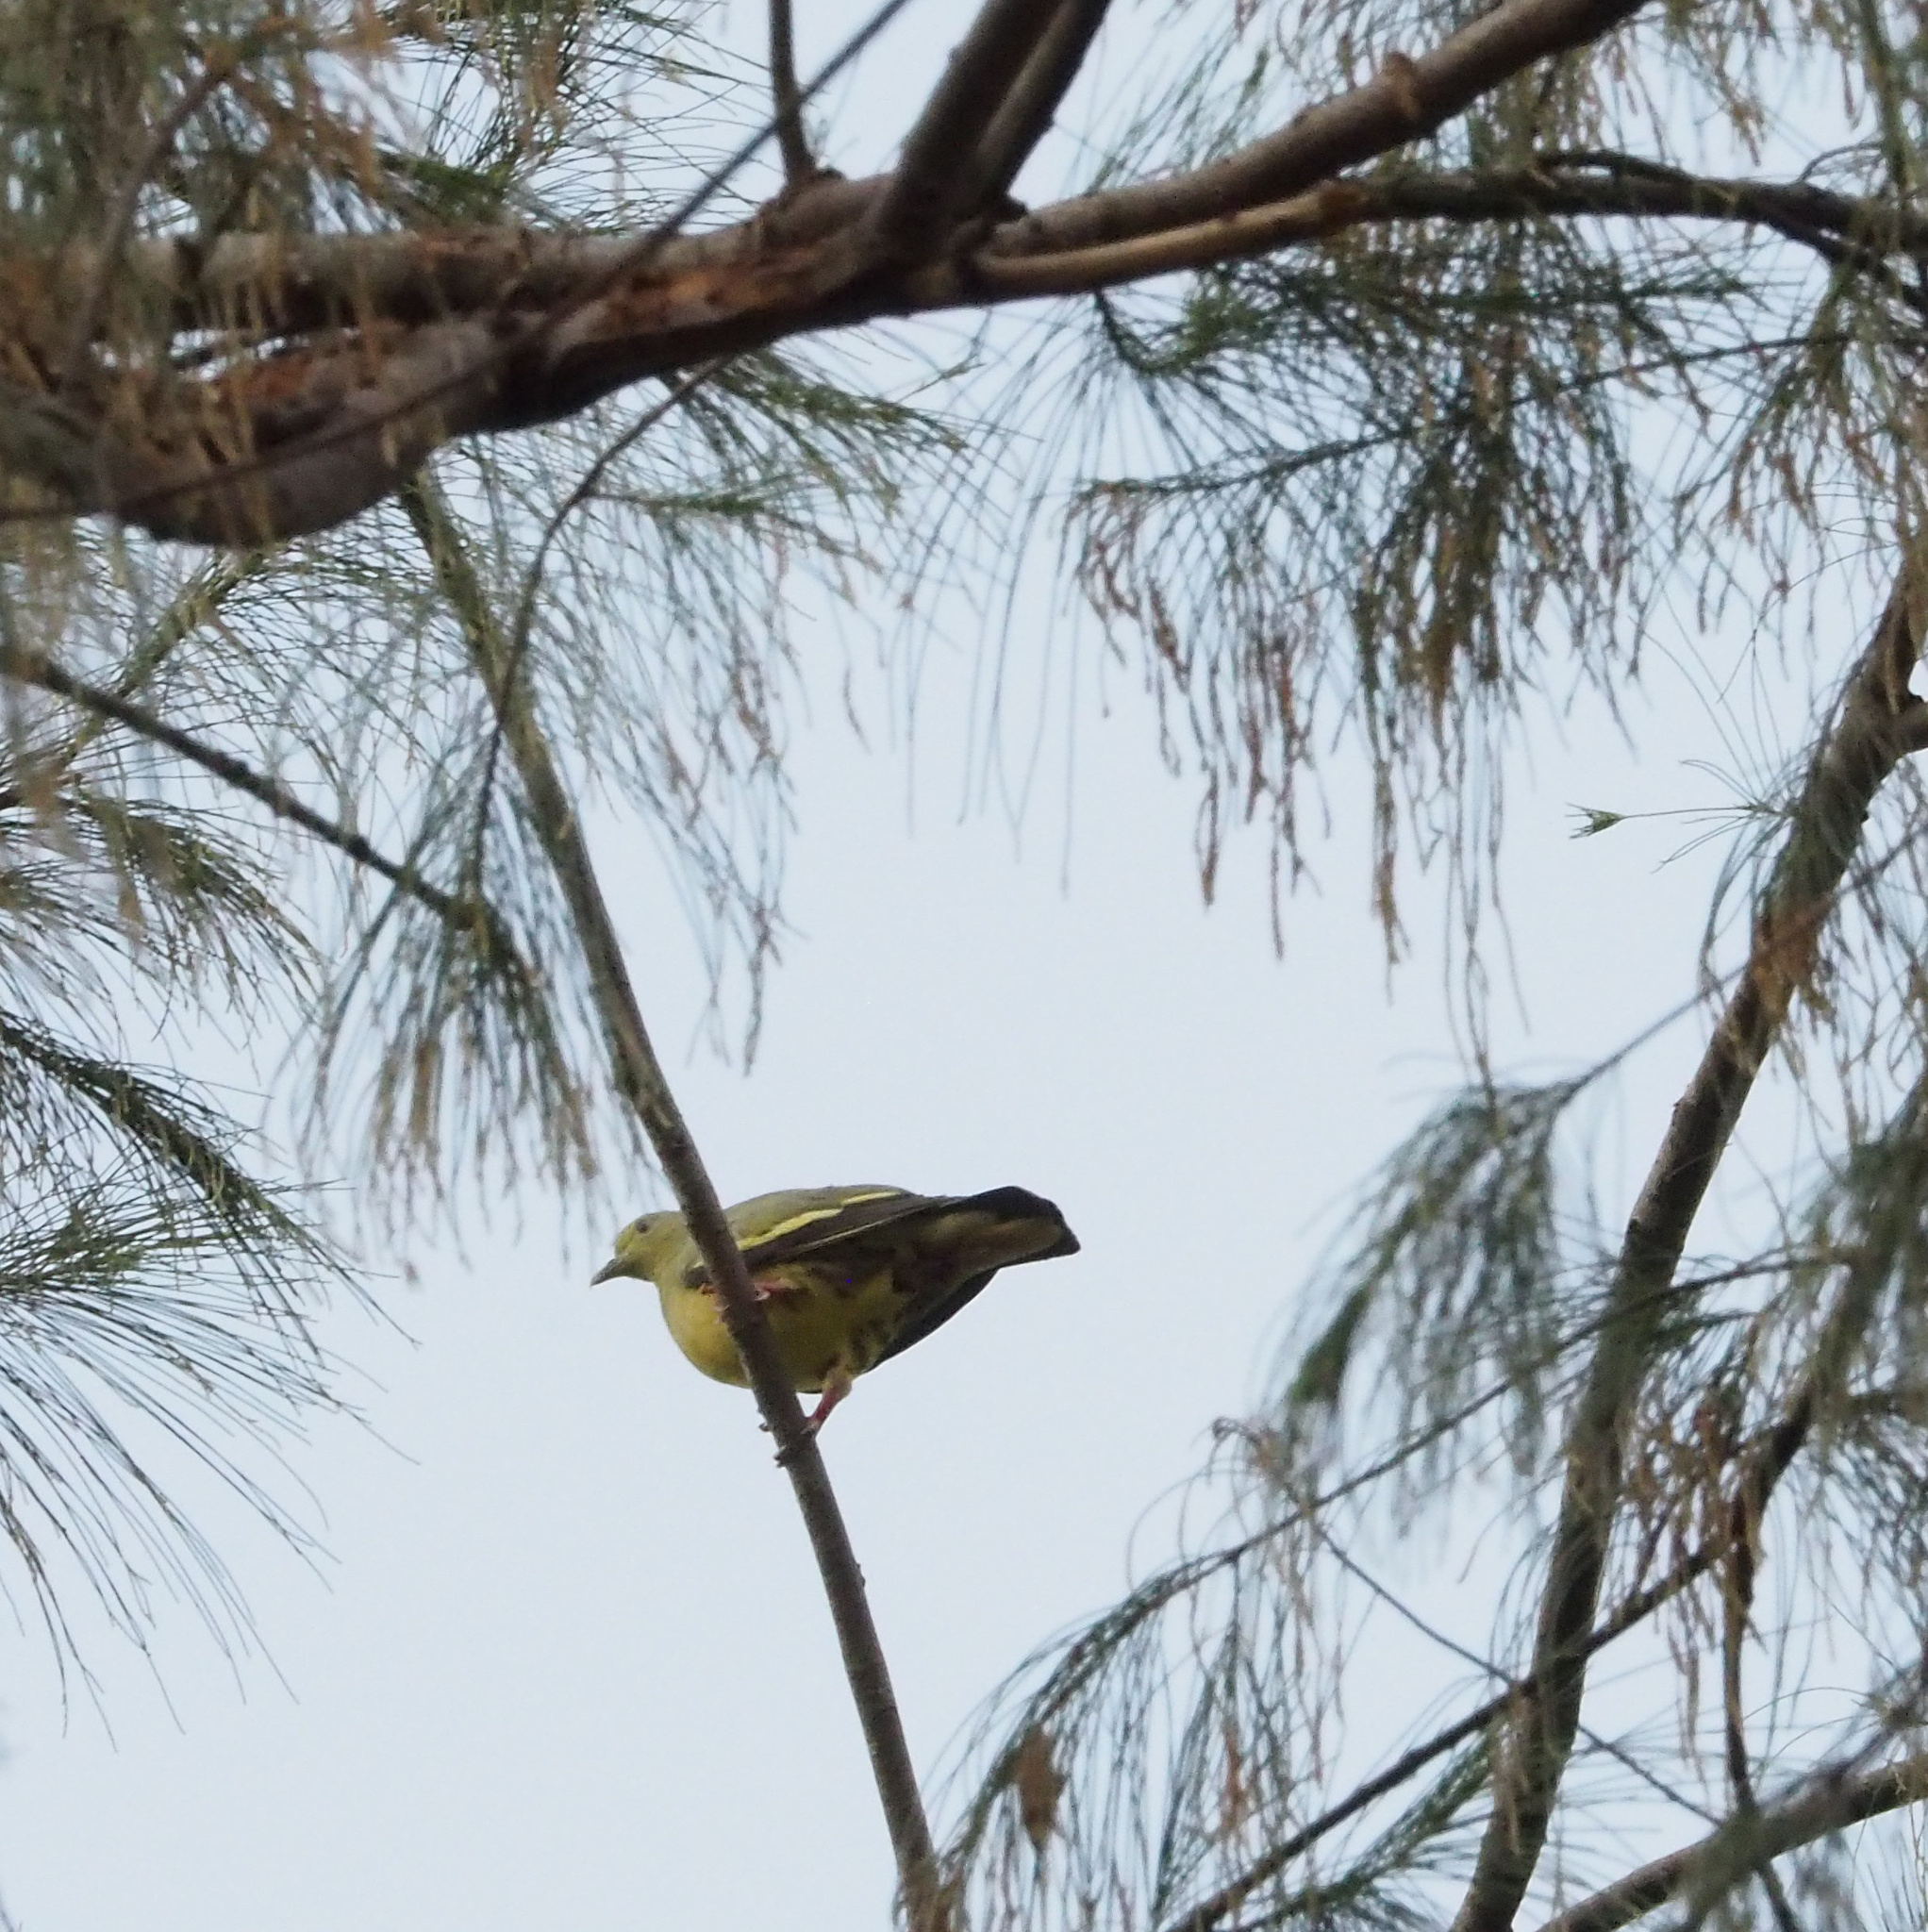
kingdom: Animalia
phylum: Chordata
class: Aves
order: Columbiformes
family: Columbidae
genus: Treron
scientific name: Treron vernans
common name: Pink-necked green pigeon
